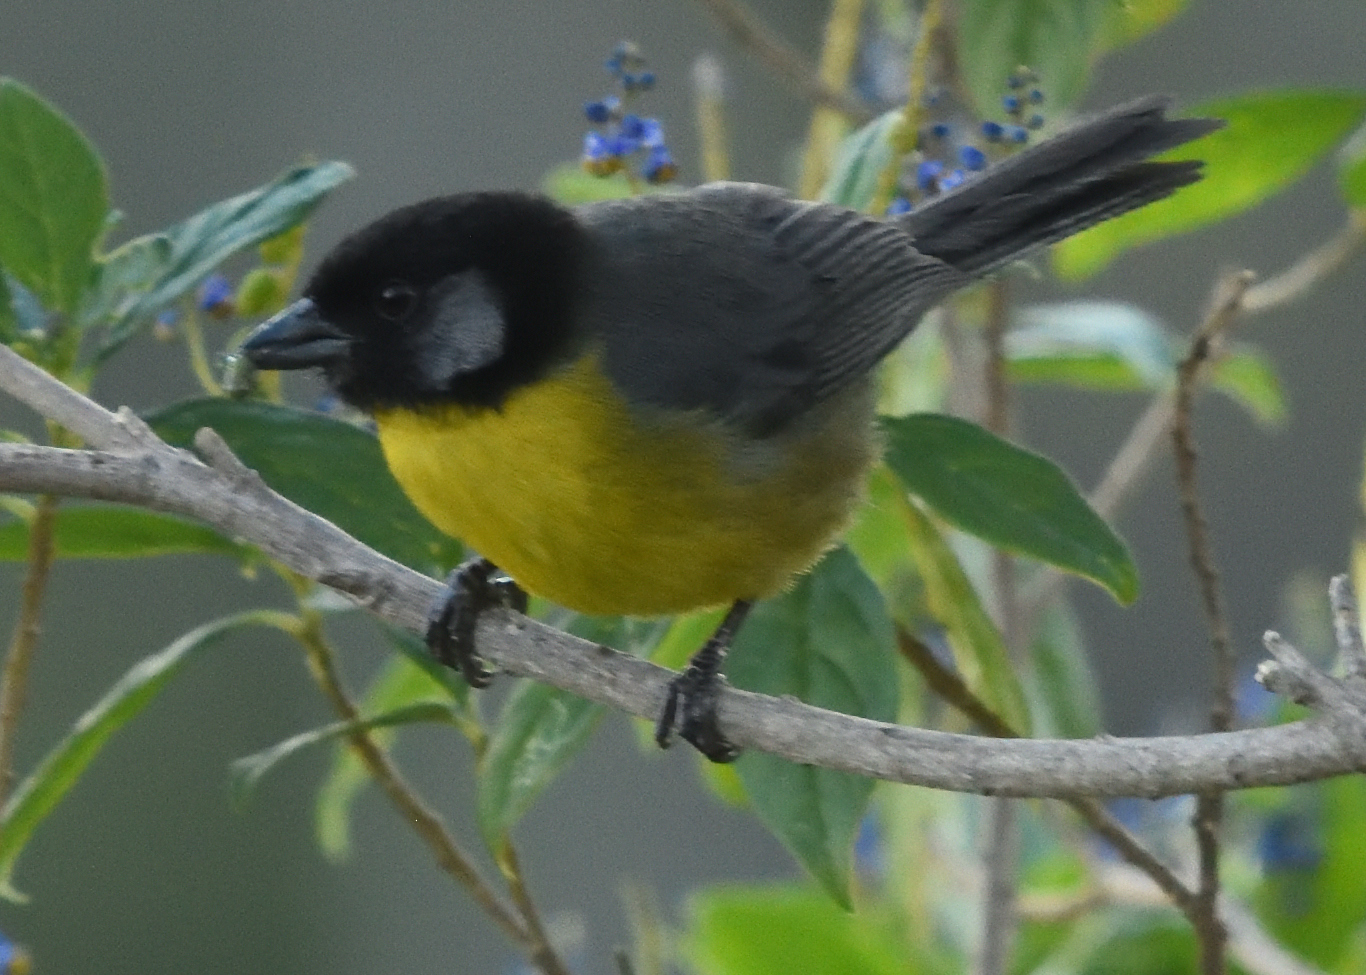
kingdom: Animalia
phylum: Chordata
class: Aves
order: Passeriformes
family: Passerellidae
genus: Atlapetes
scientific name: Atlapetes melanocephalus
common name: Santa marta brush-finch
